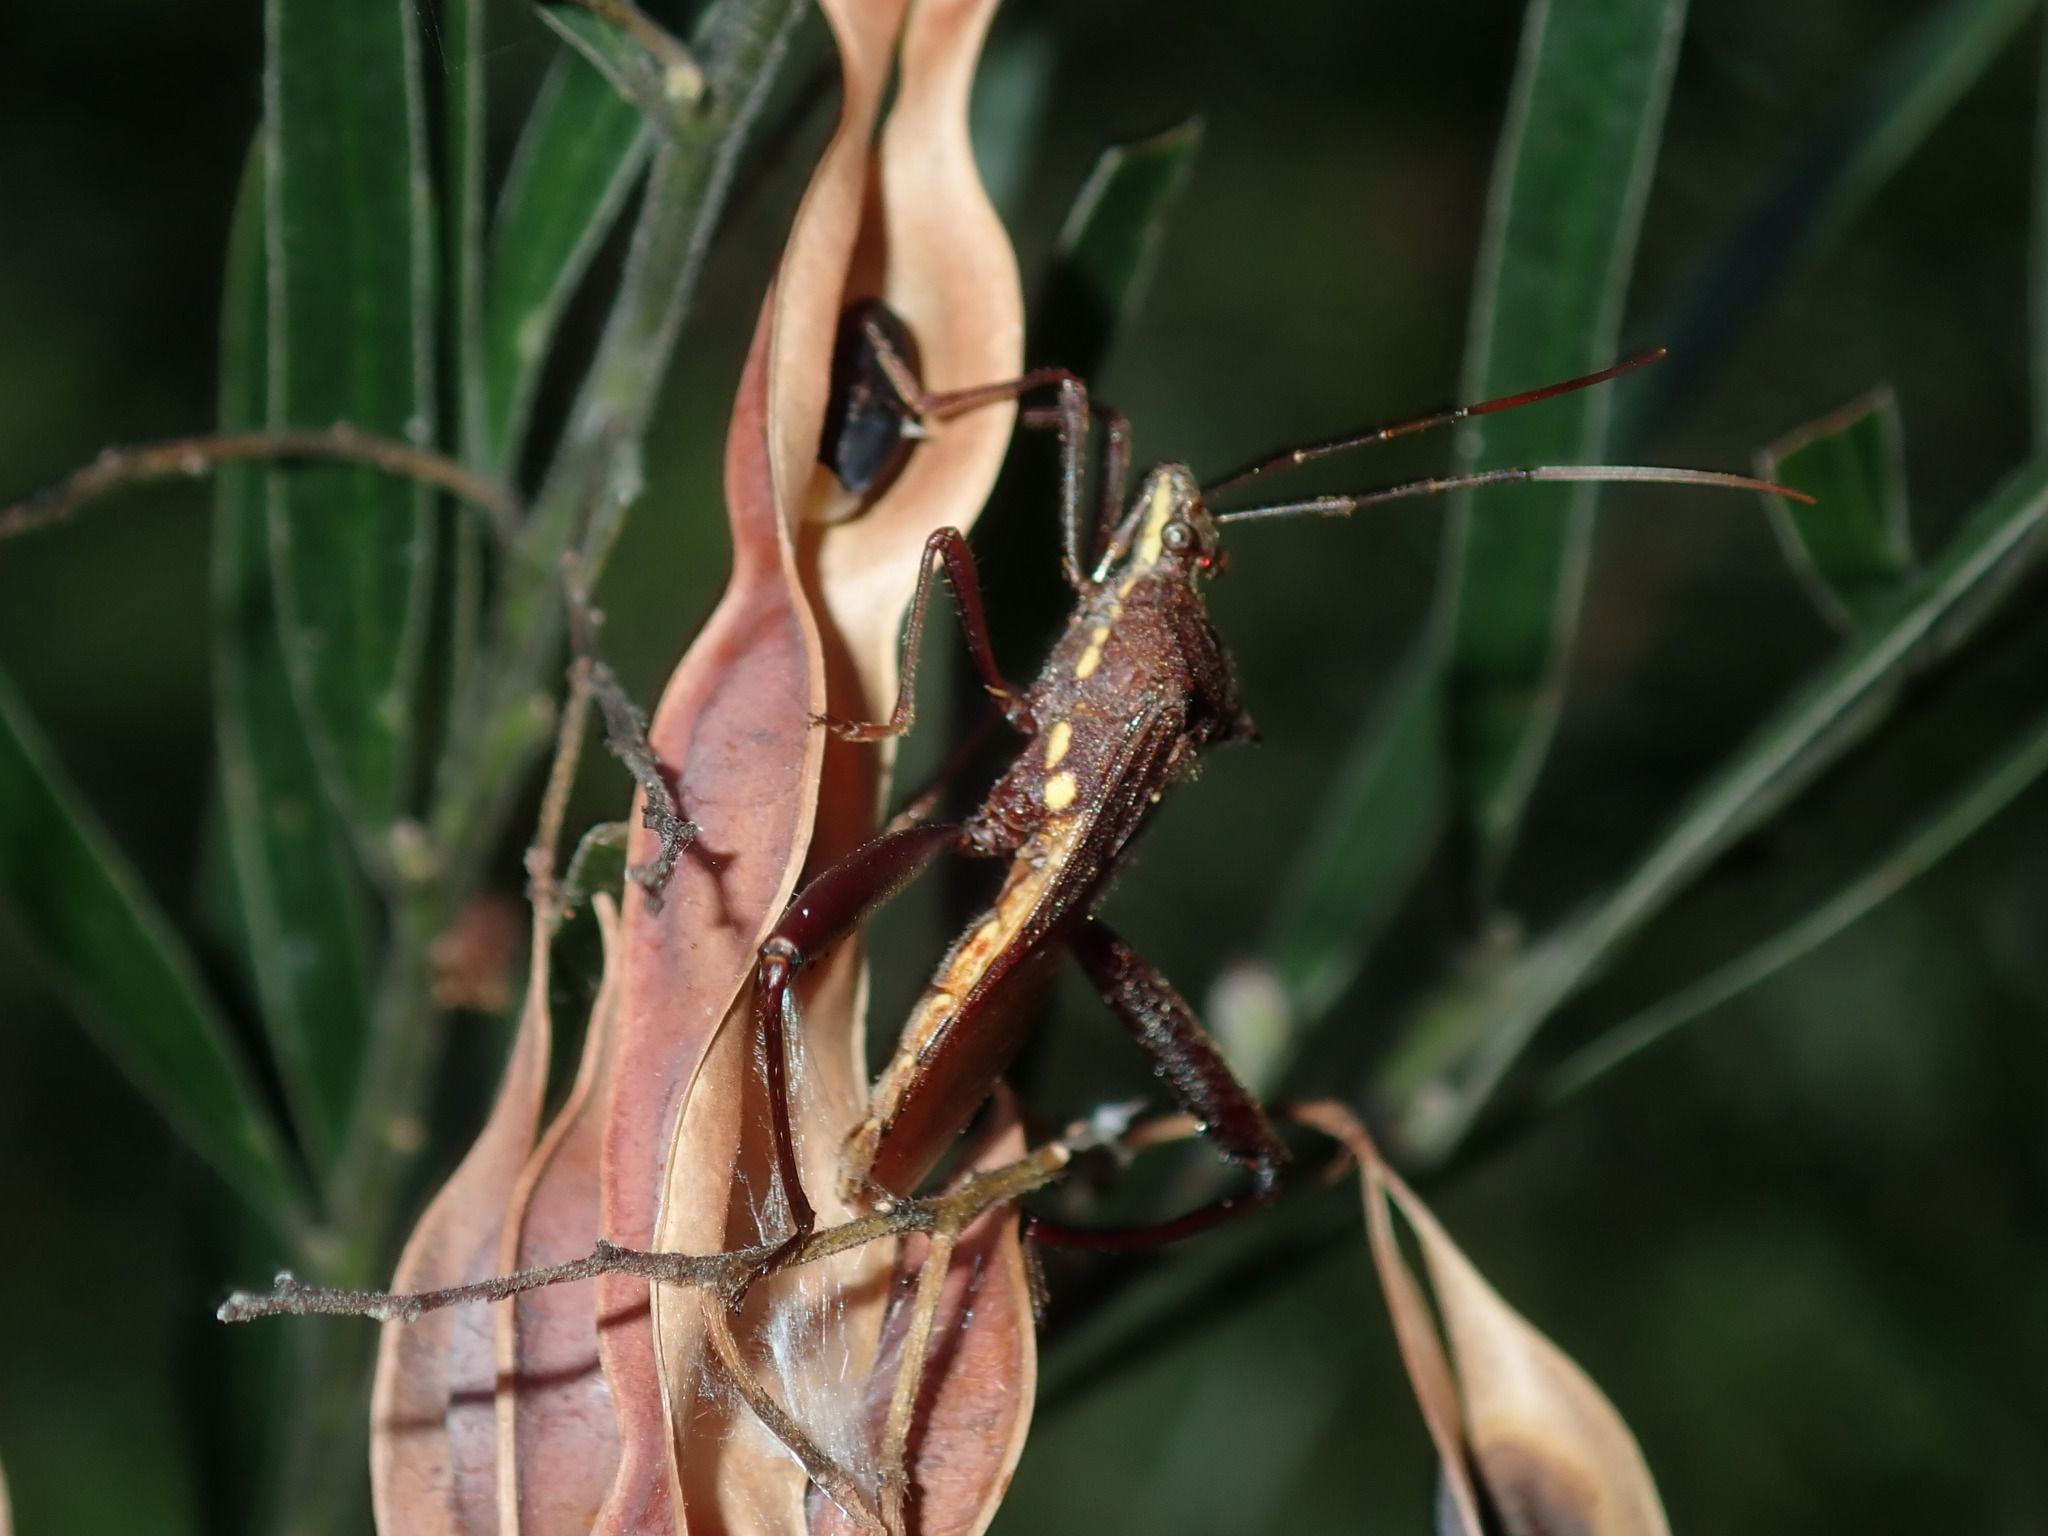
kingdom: Animalia
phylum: Arthropoda
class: Insecta
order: Hemiptera
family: Alydidae
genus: Riptortus
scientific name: Riptortus serripes
